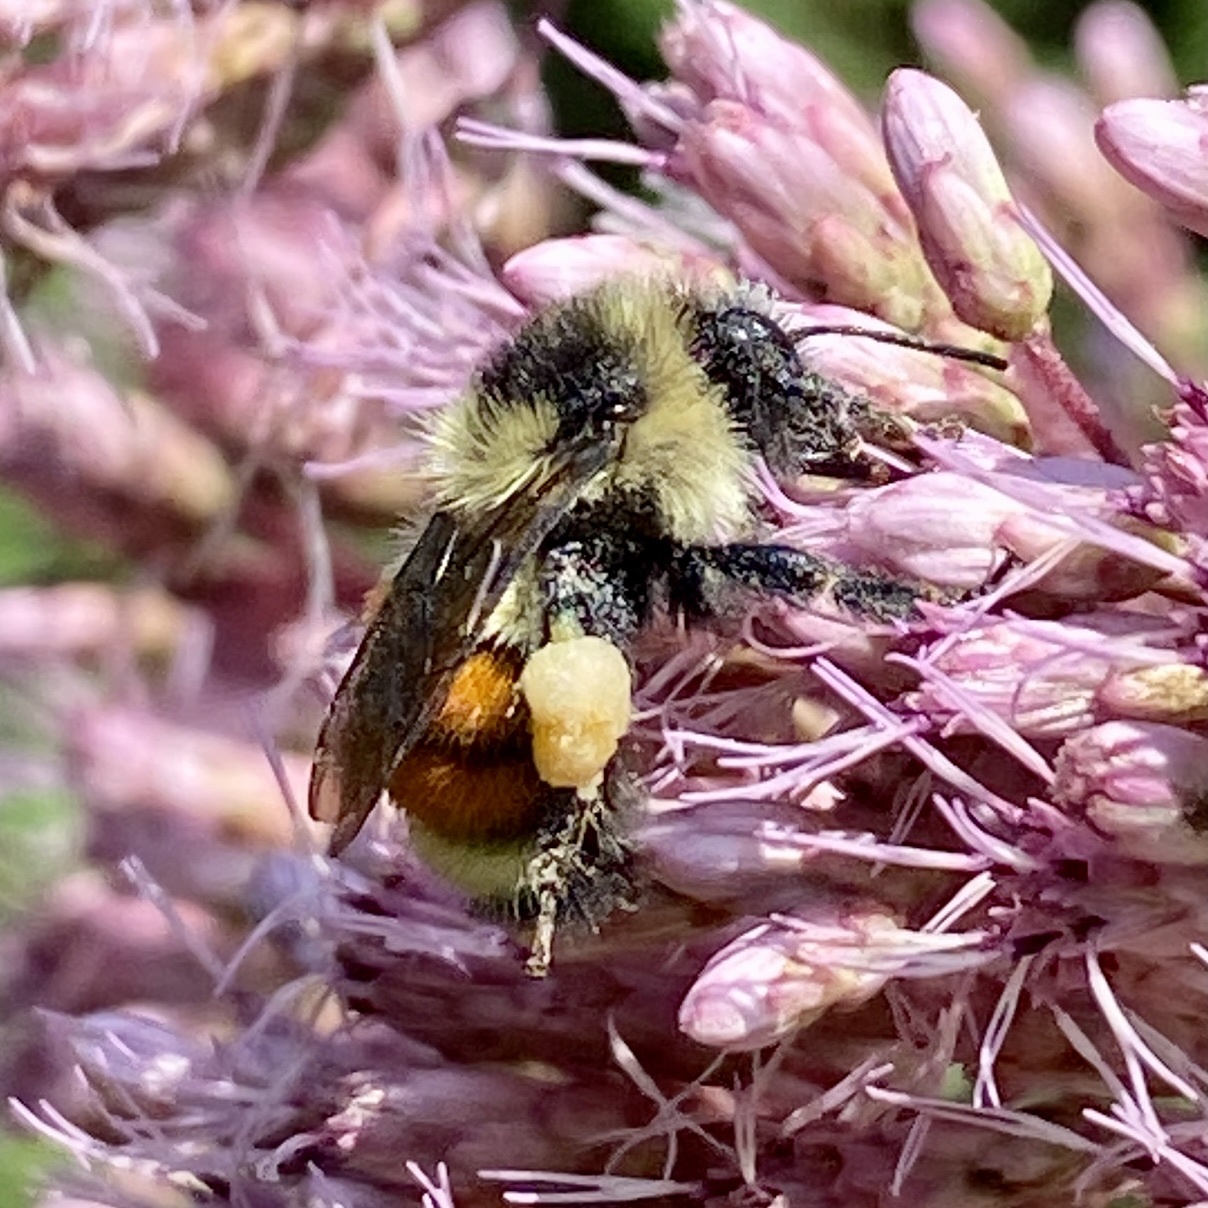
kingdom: Animalia
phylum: Arthropoda
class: Insecta
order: Hymenoptera
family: Apidae
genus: Bombus
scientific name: Bombus ternarius
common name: Tri-colored bumble bee
